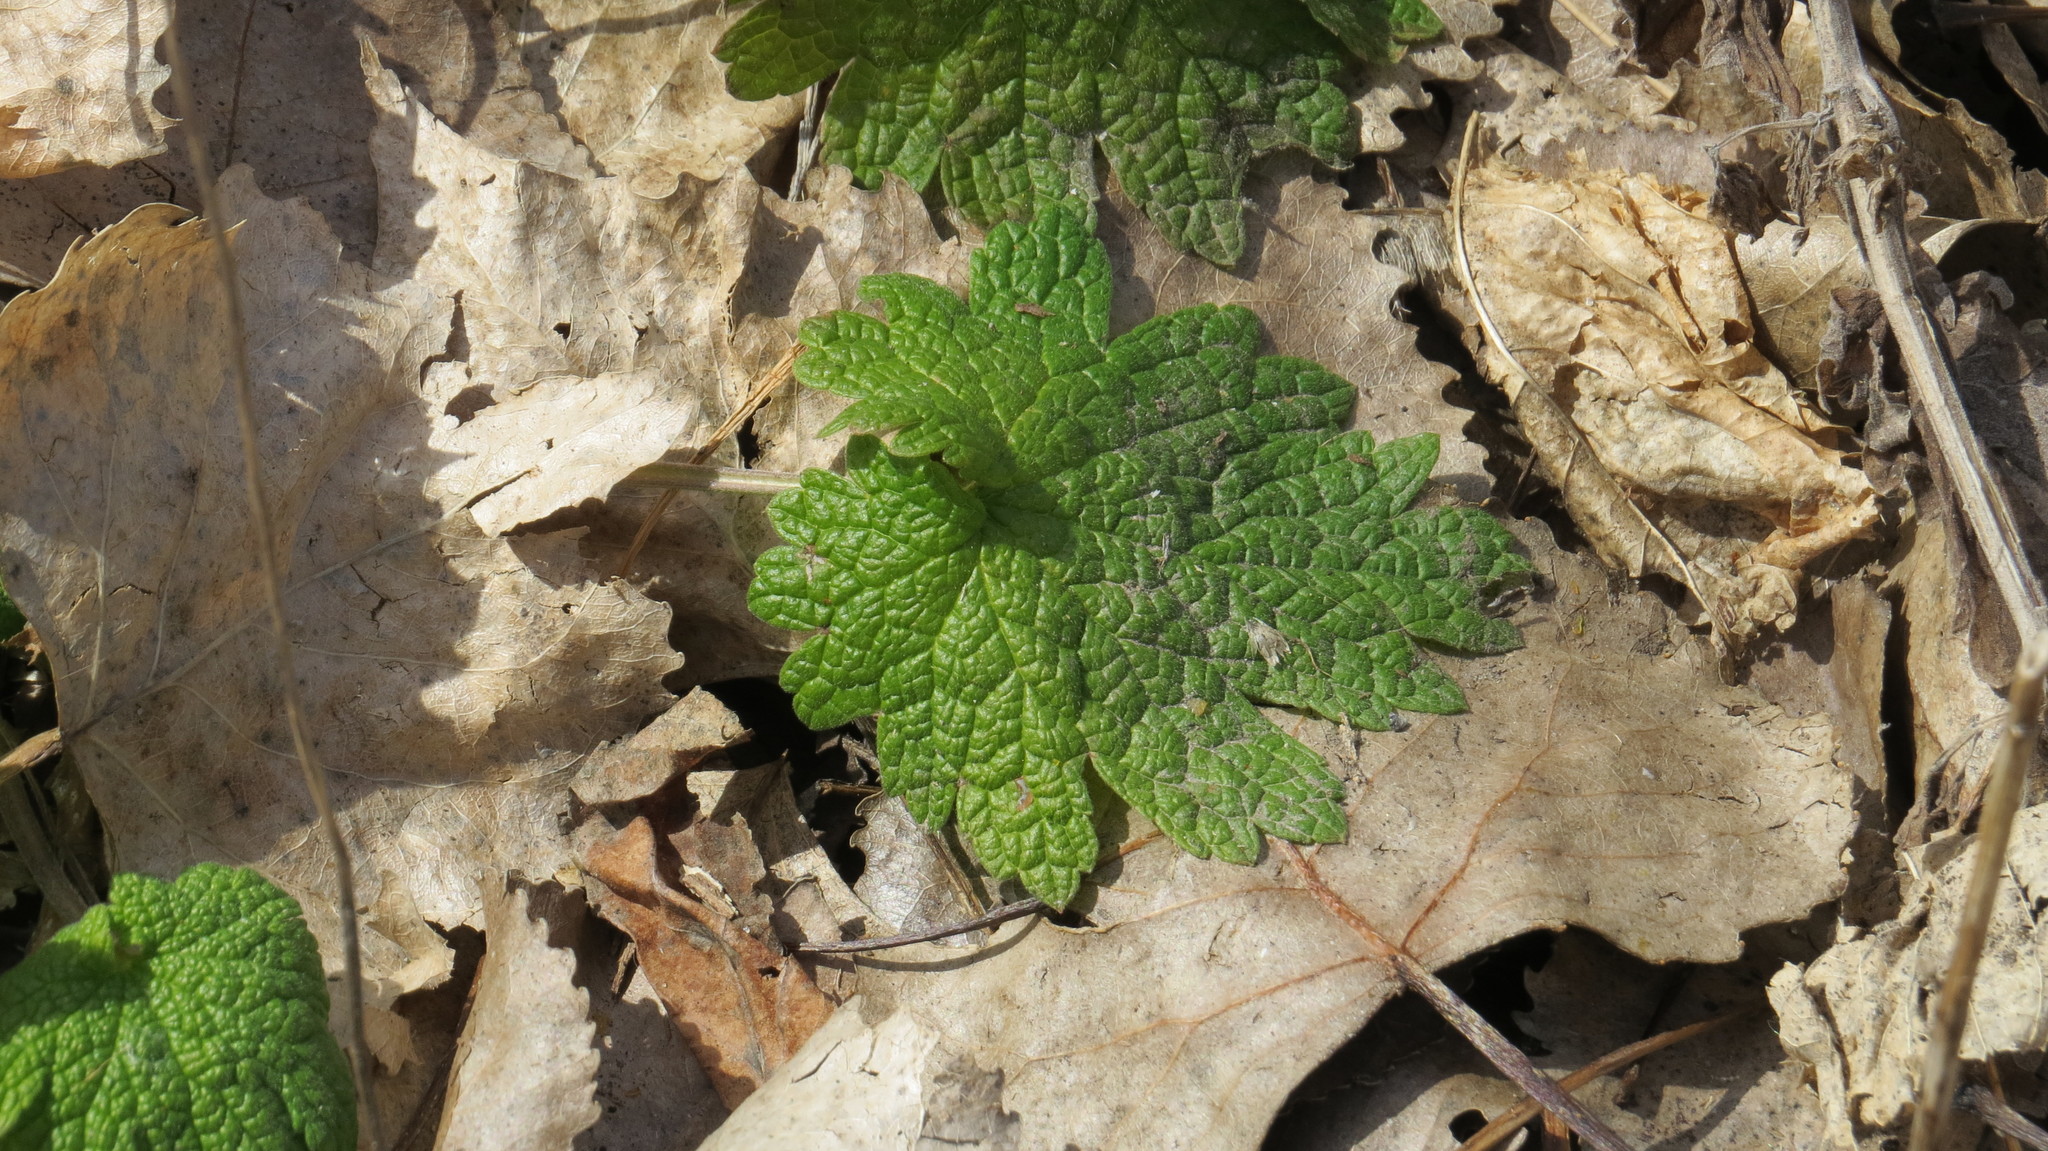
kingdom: Plantae
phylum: Tracheophyta
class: Magnoliopsida
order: Lamiales
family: Lamiaceae
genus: Leonurus
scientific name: Leonurus cardiaca
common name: Motherwort
